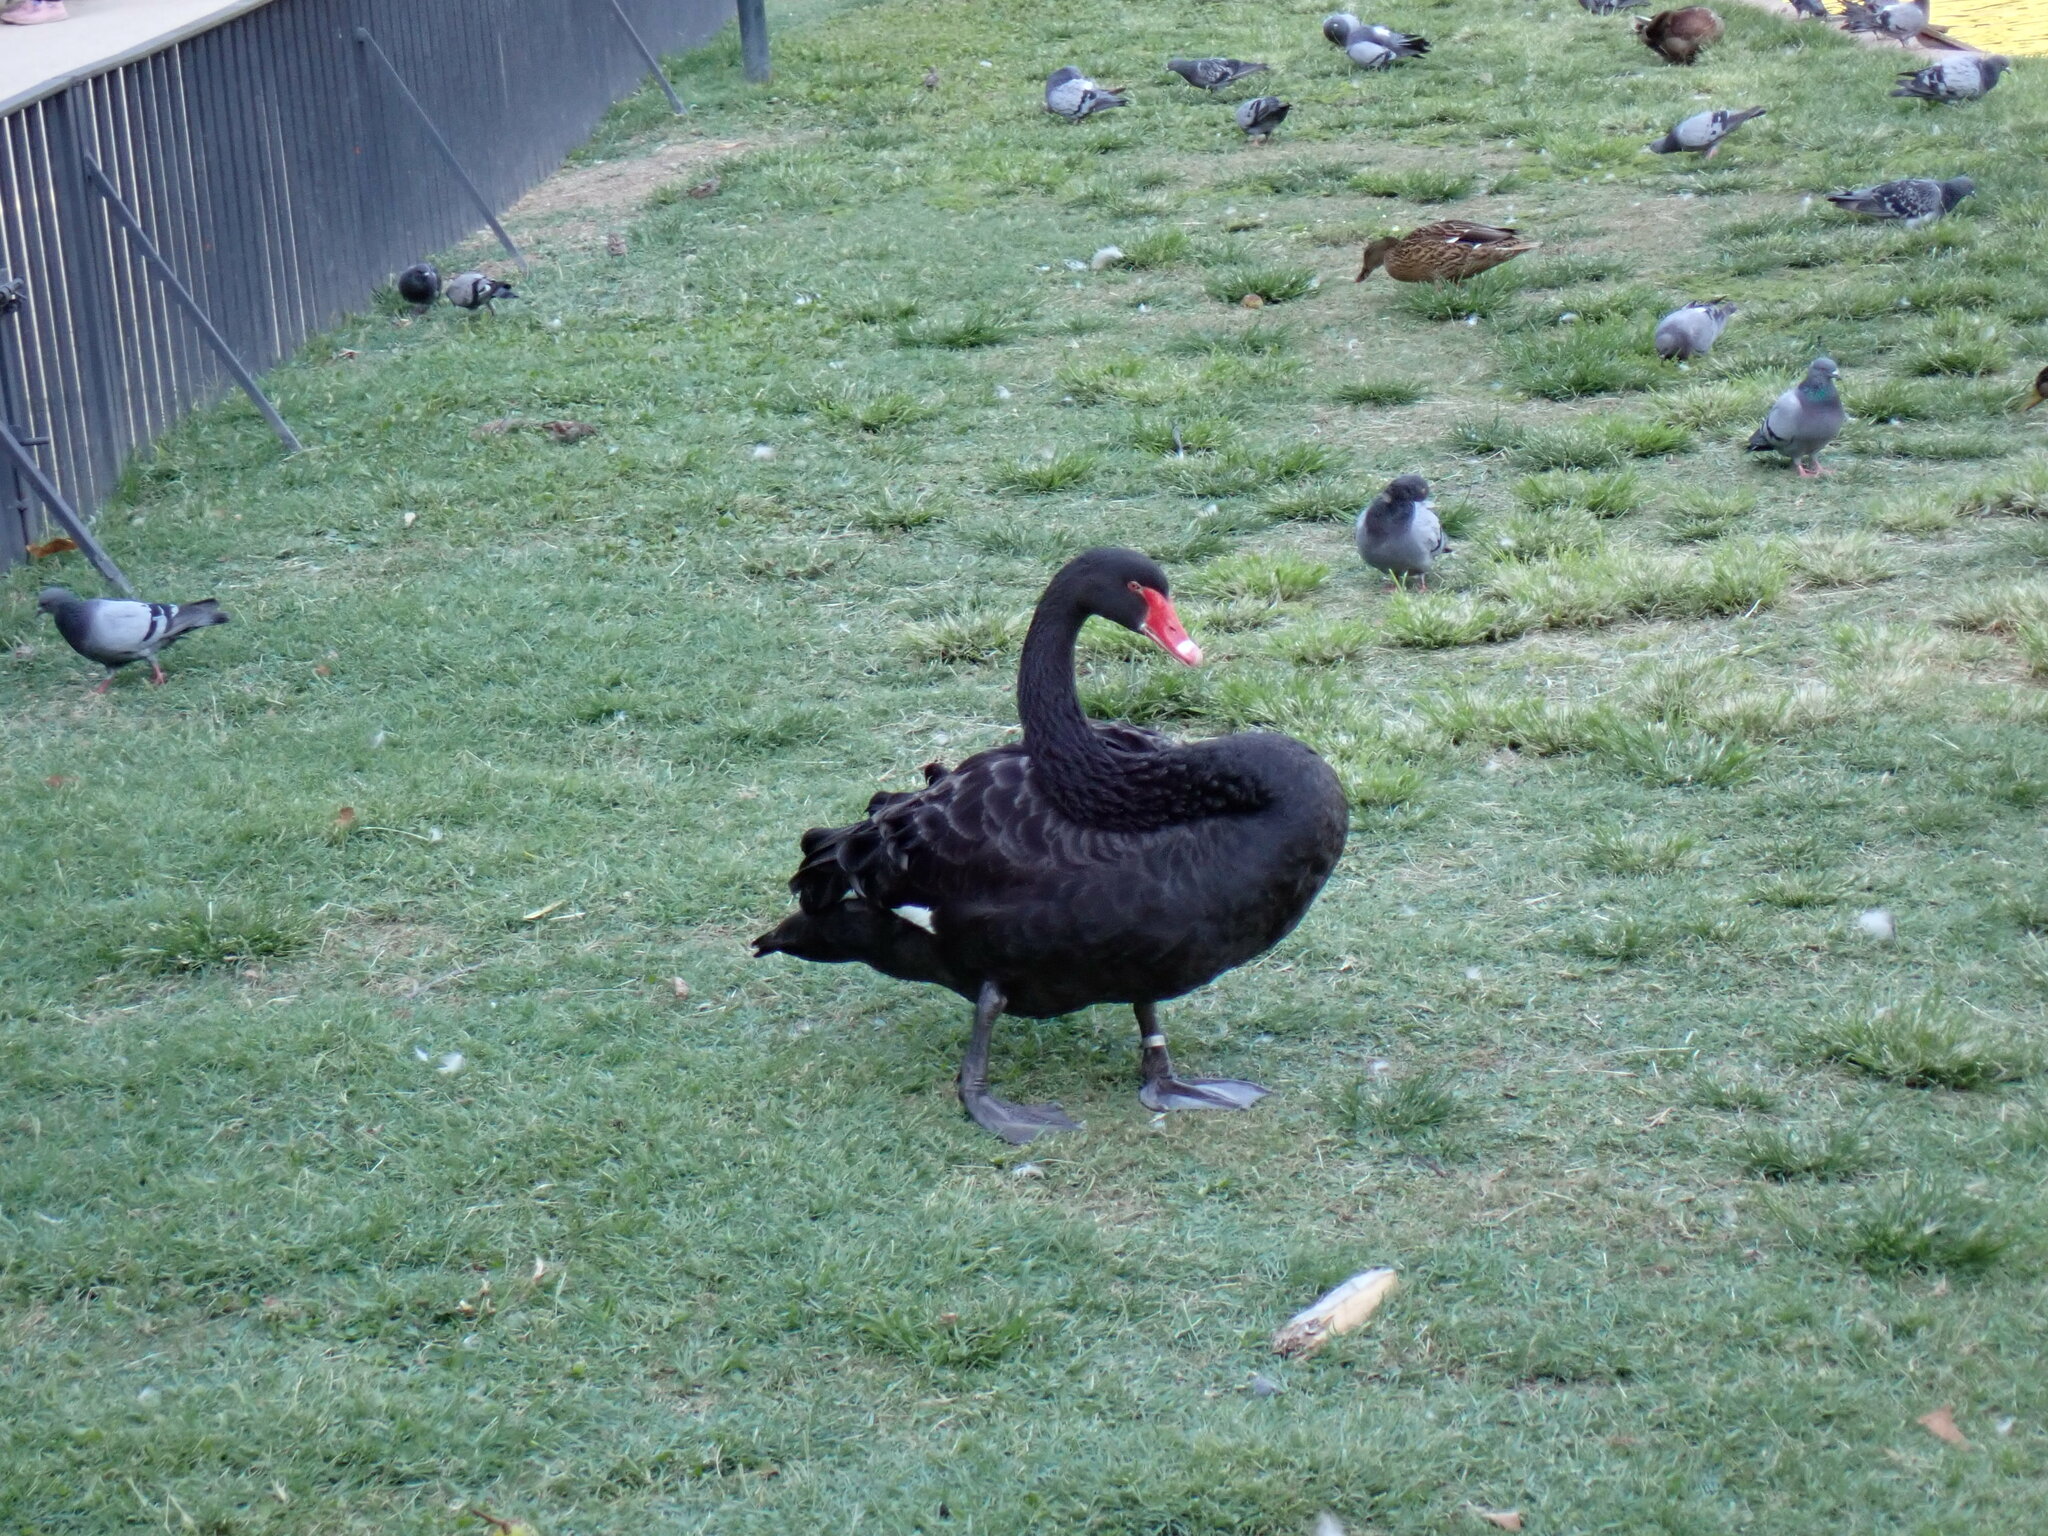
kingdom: Animalia
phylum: Chordata
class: Aves
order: Anseriformes
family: Anatidae
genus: Cygnus
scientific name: Cygnus atratus
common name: Black swan
